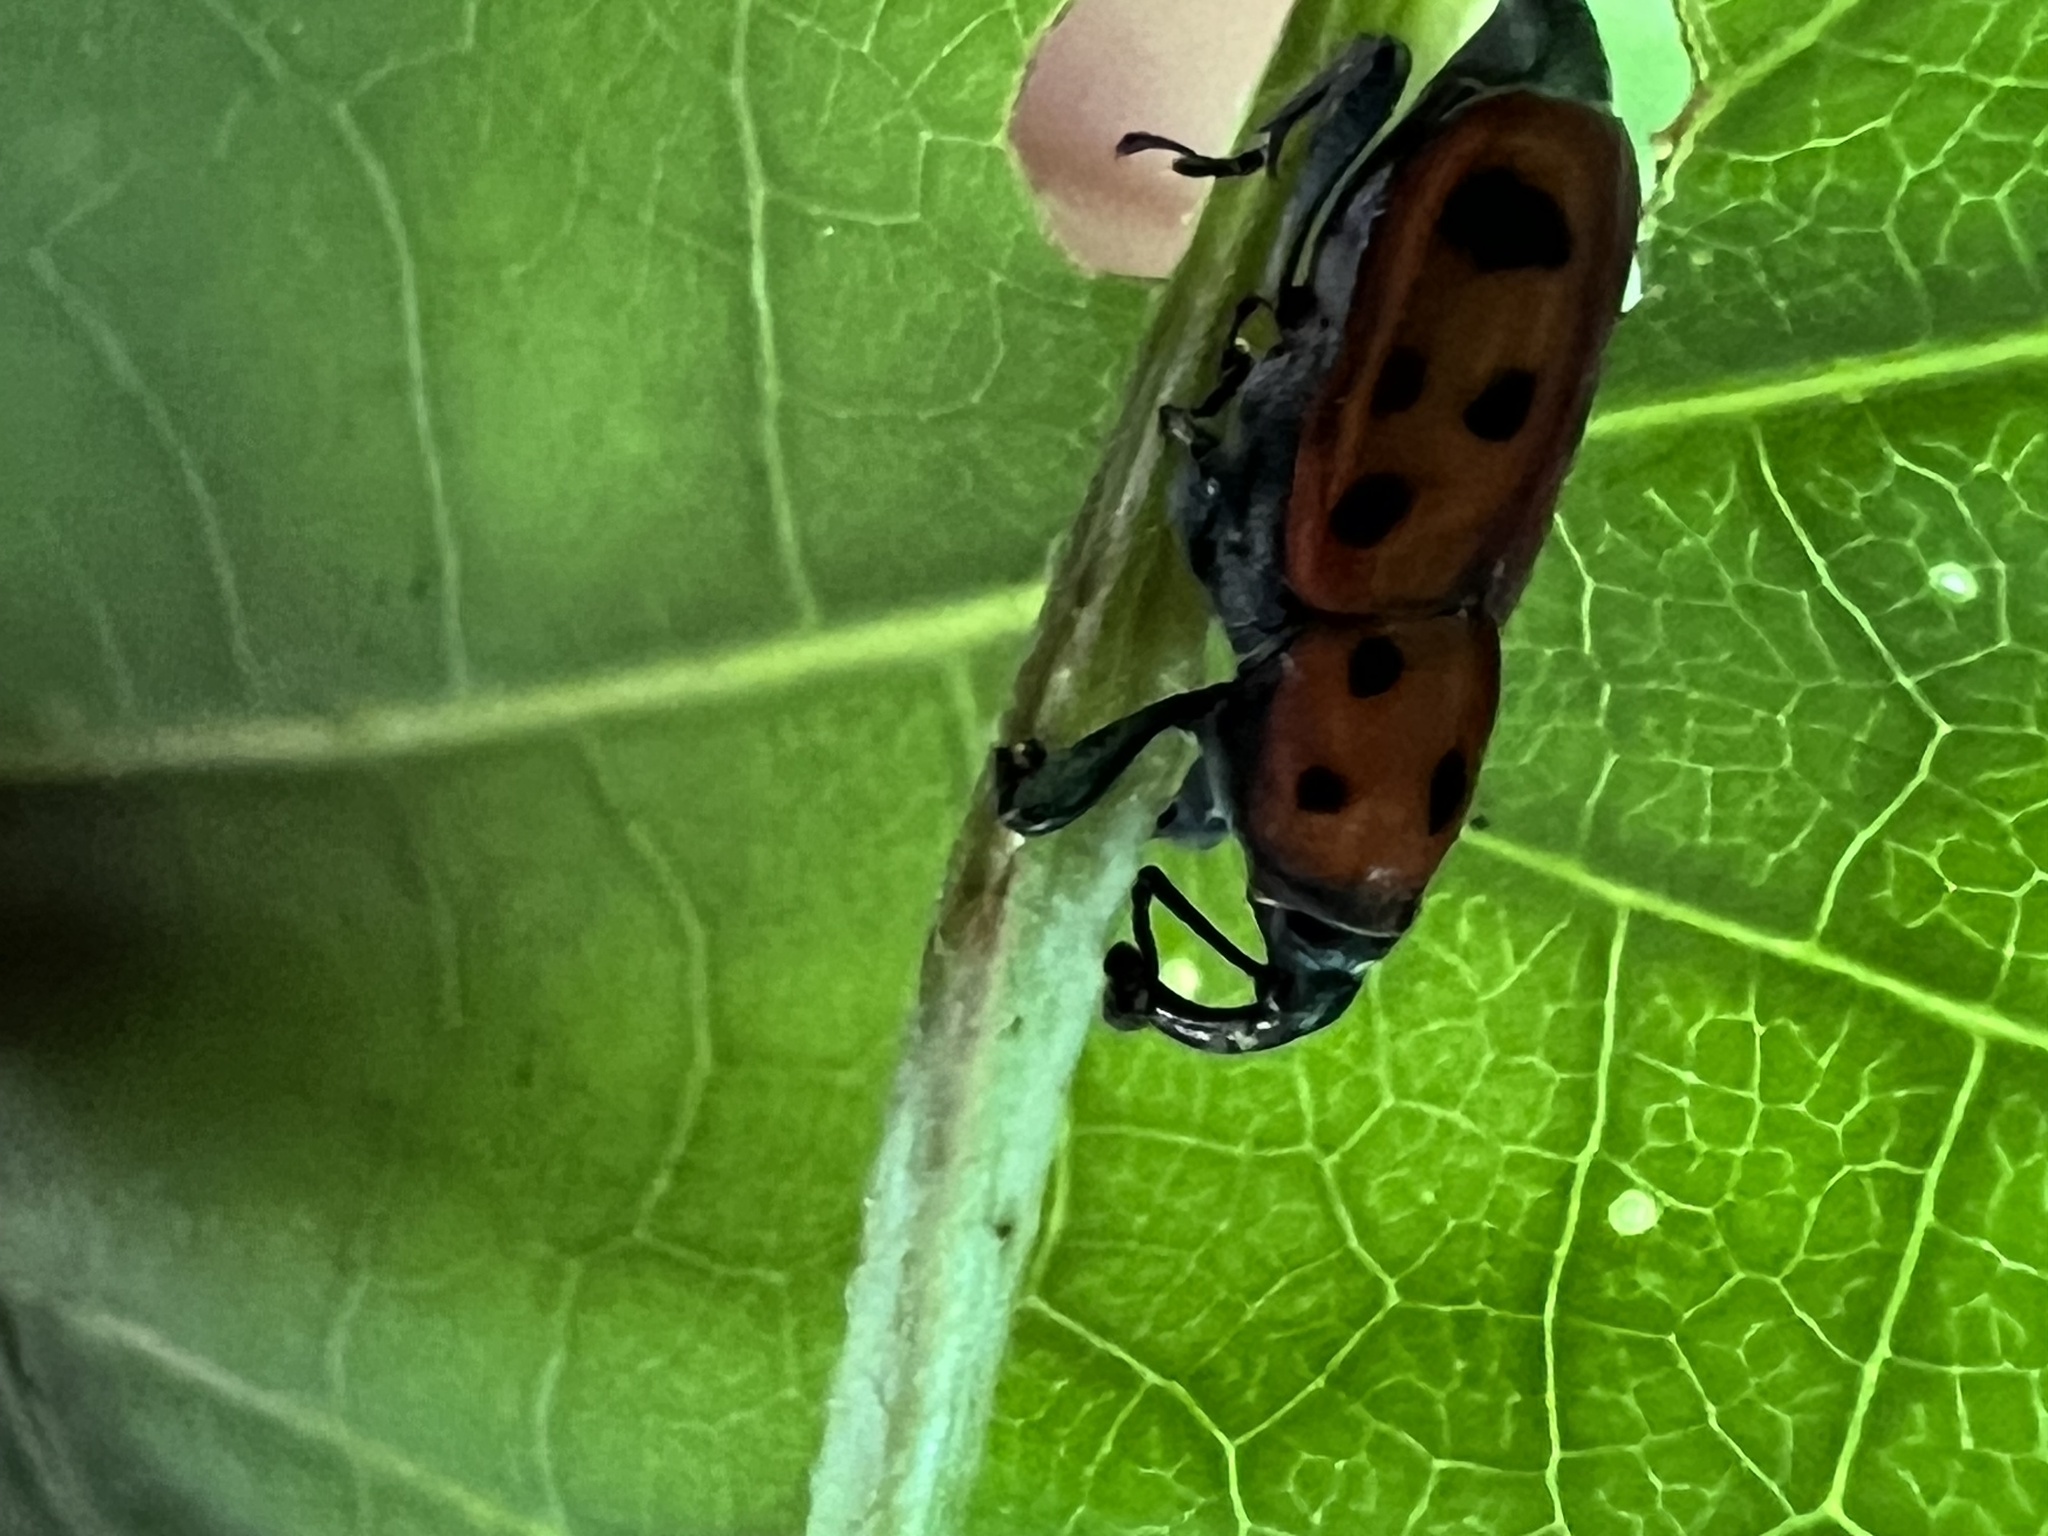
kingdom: Animalia
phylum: Arthropoda
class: Insecta
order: Coleoptera
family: Dryophthoridae
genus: Rhodobaenus
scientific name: Rhodobaenus tredecimpunctatus
